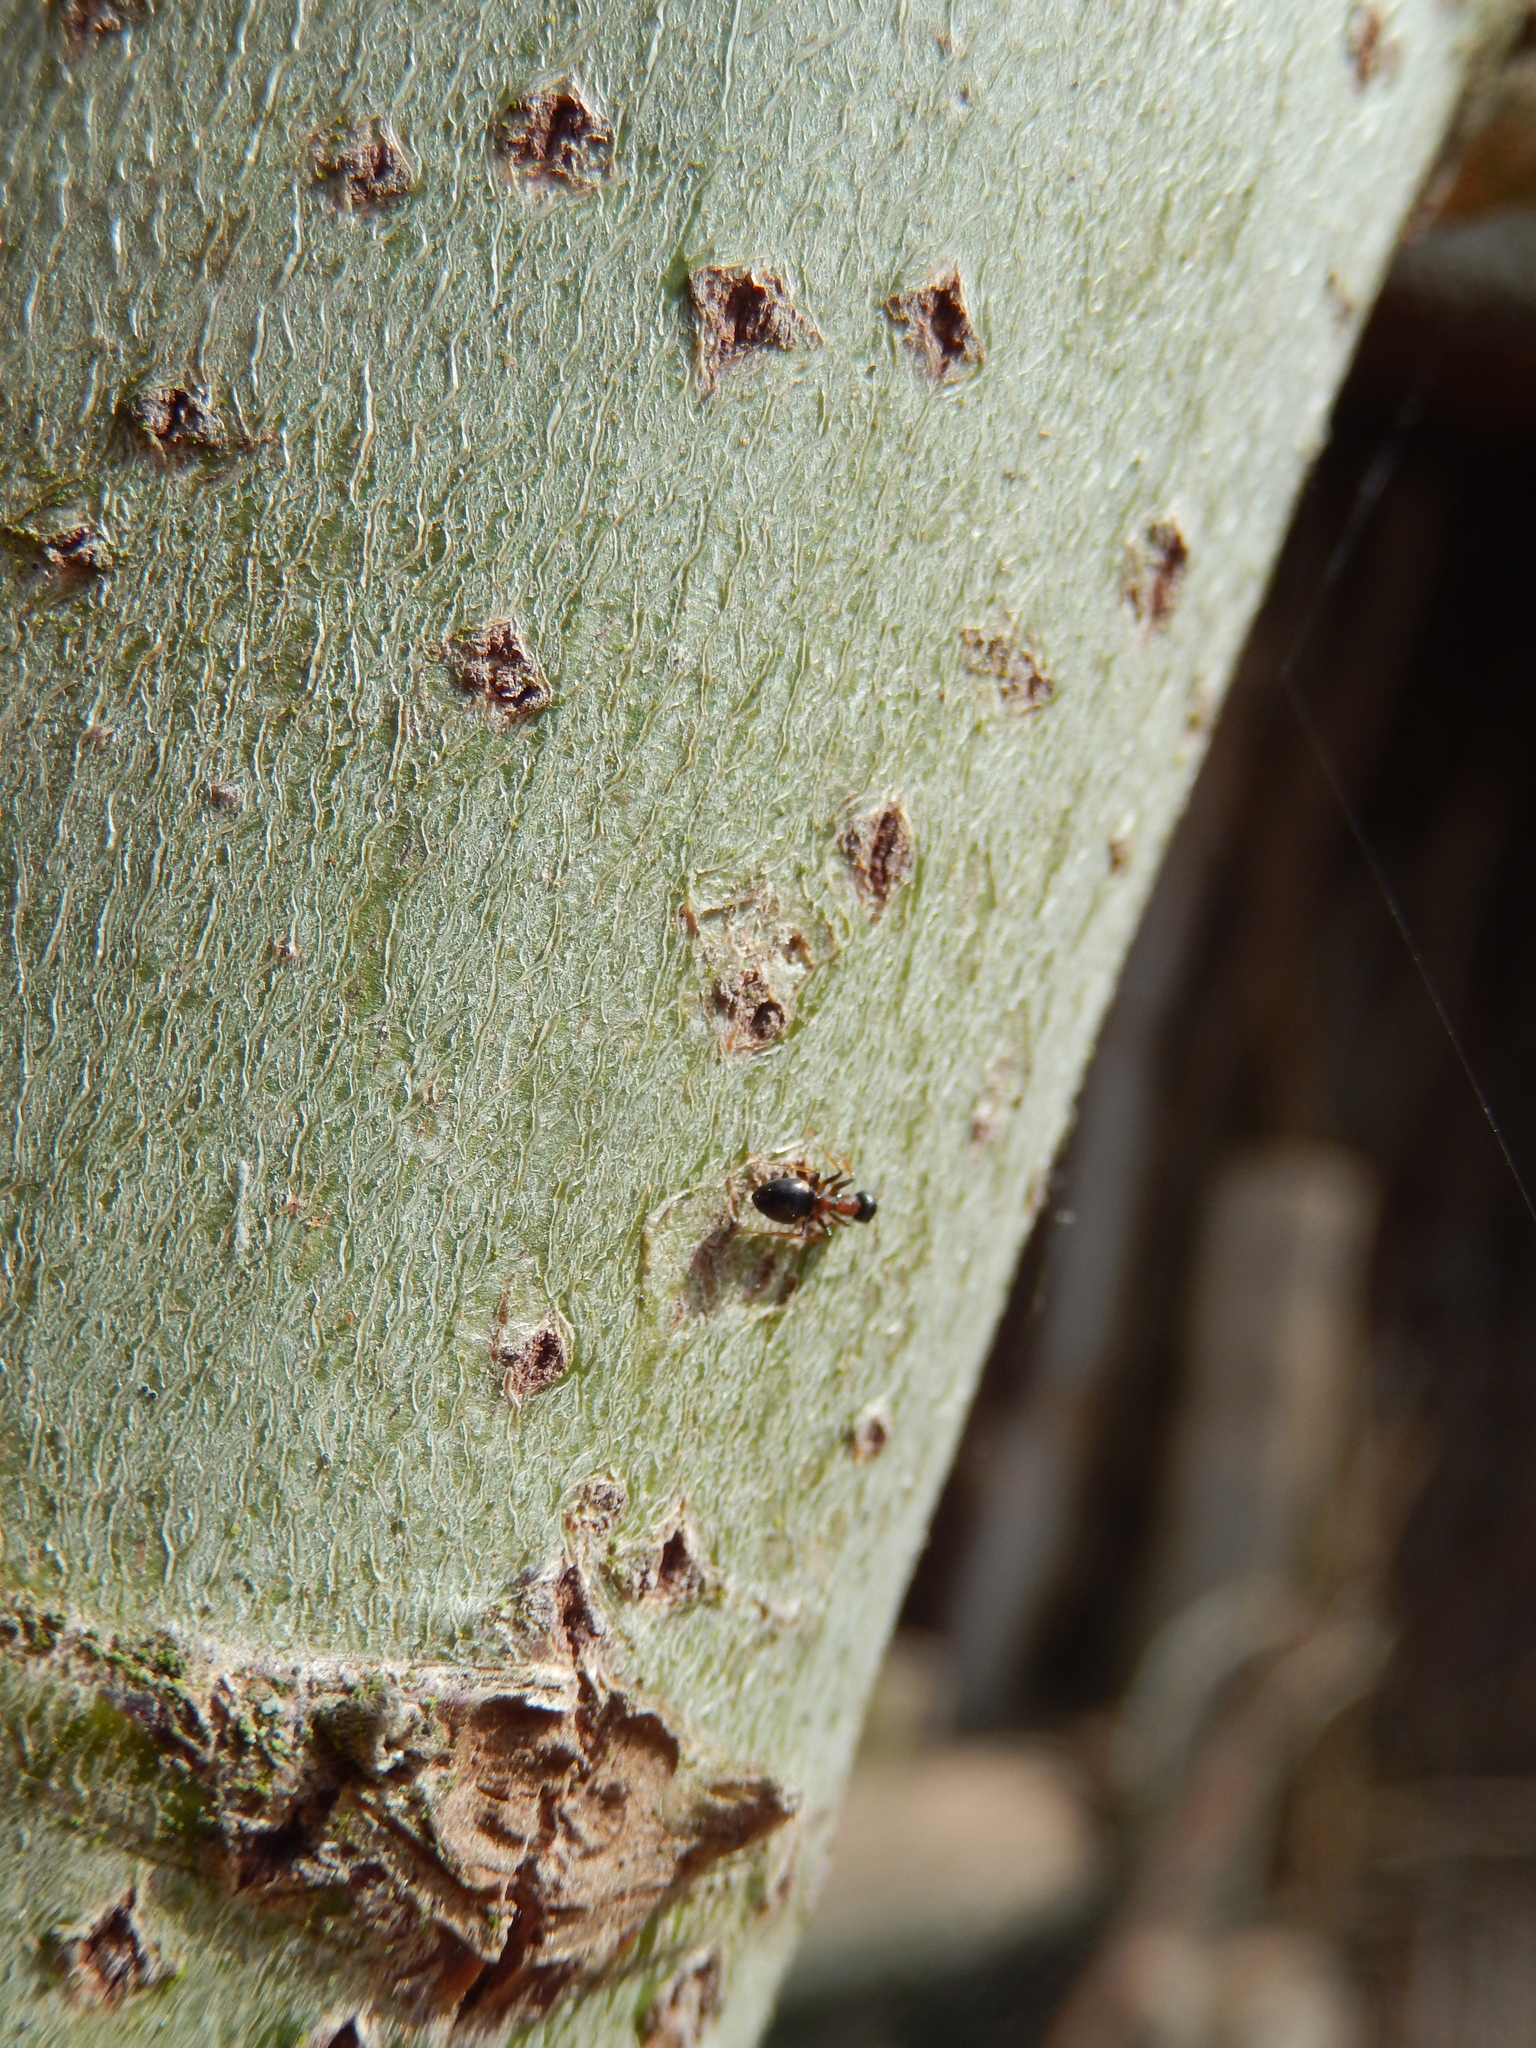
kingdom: Animalia
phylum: Arthropoda
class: Insecta
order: Hymenoptera
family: Formicidae
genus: Dolichoderus
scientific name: Dolichoderus quadripunctatus
